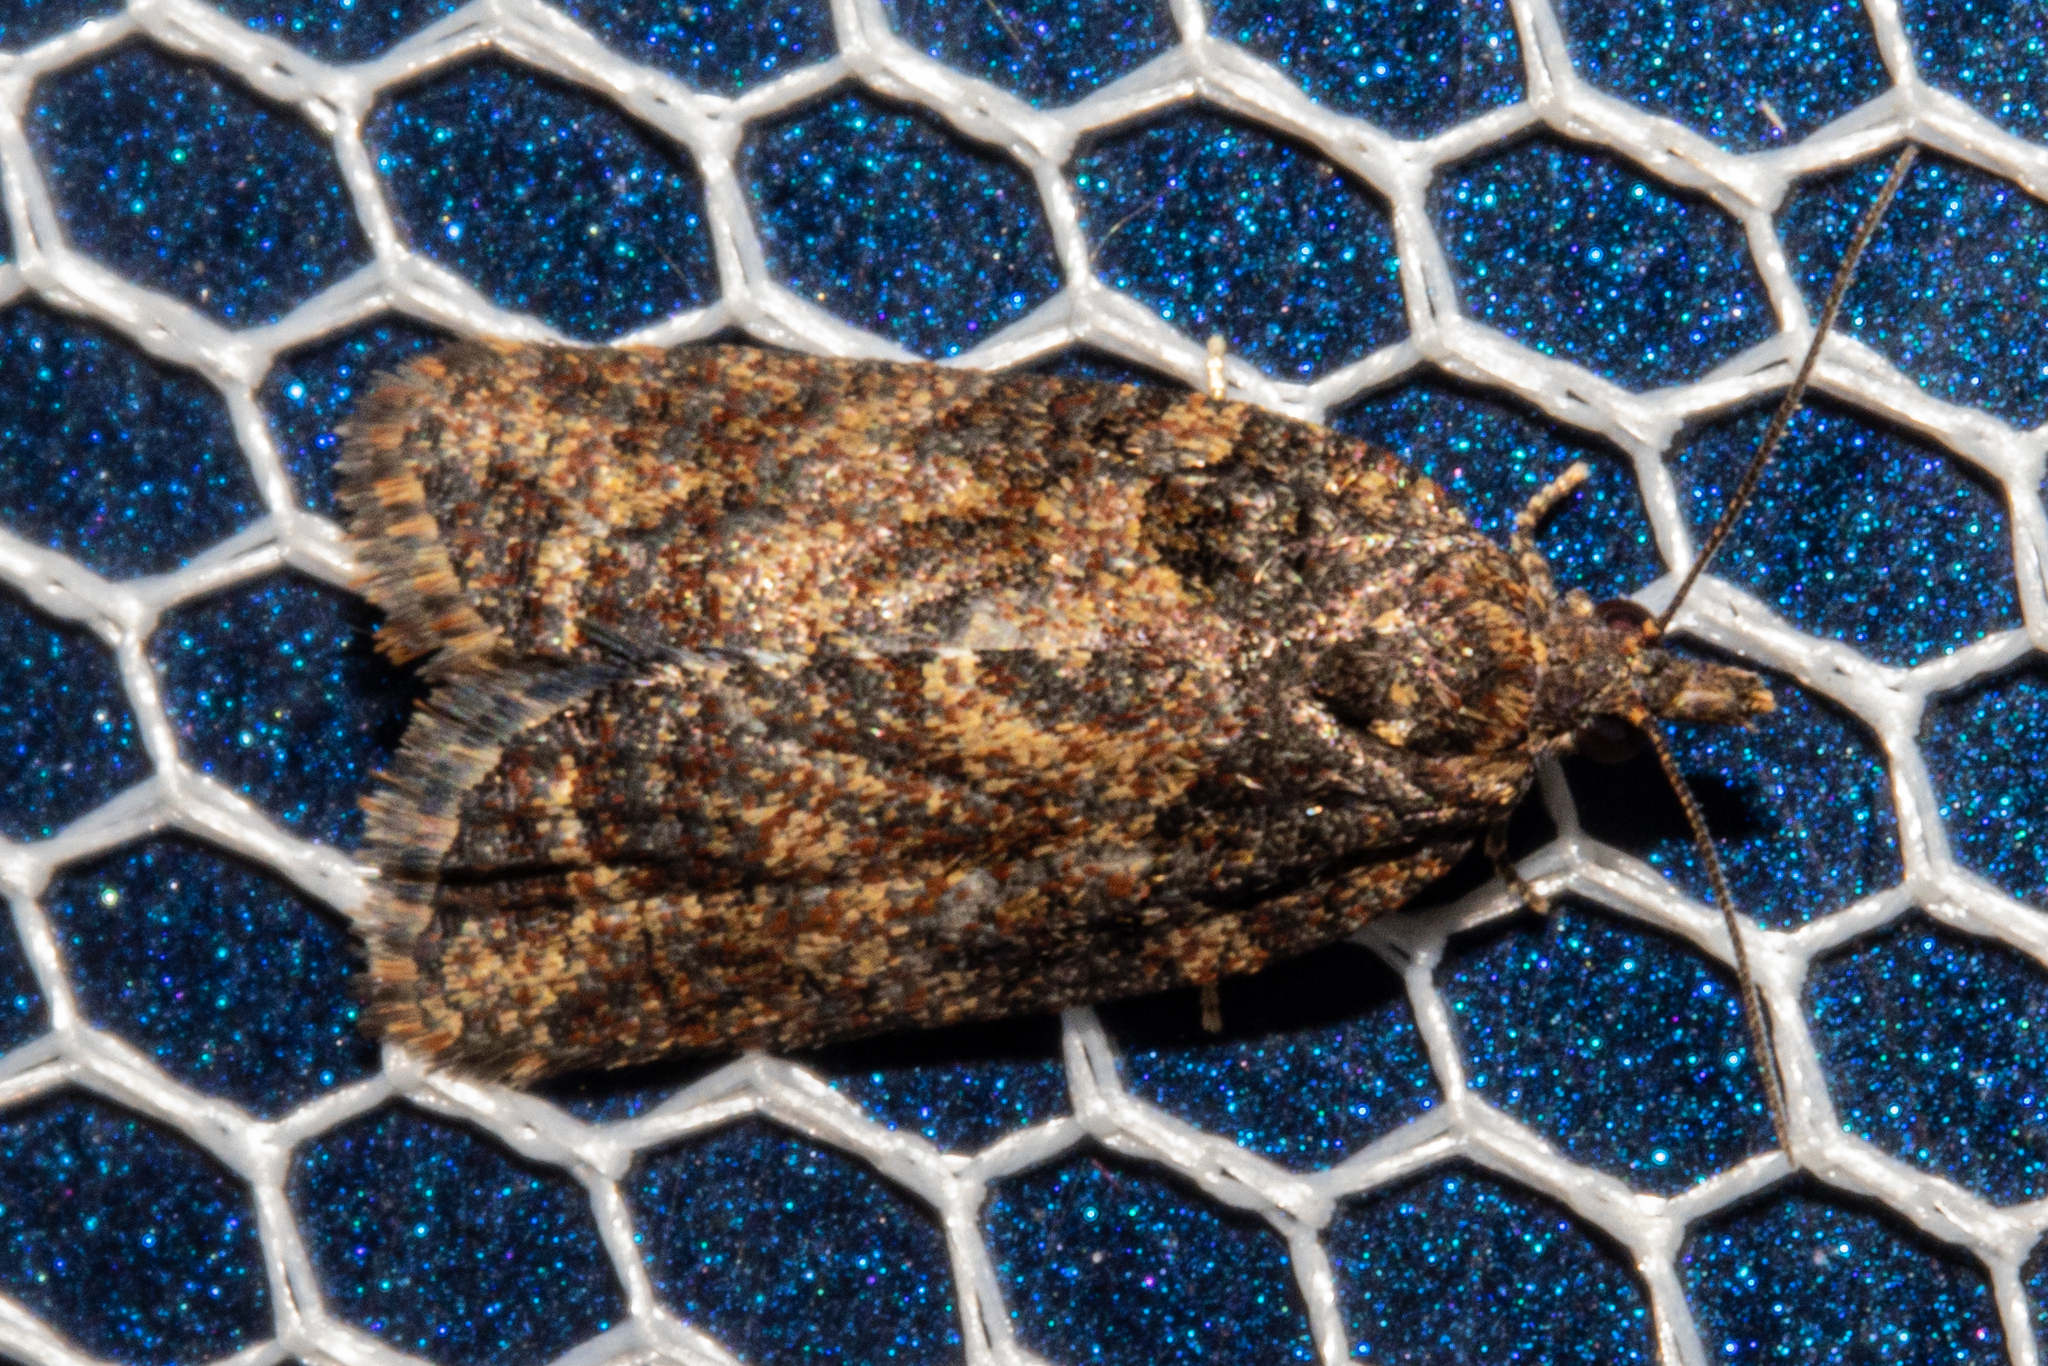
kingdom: Animalia
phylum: Arthropoda
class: Insecta
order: Lepidoptera
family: Tortricidae
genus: Capua
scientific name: Capua intractana
